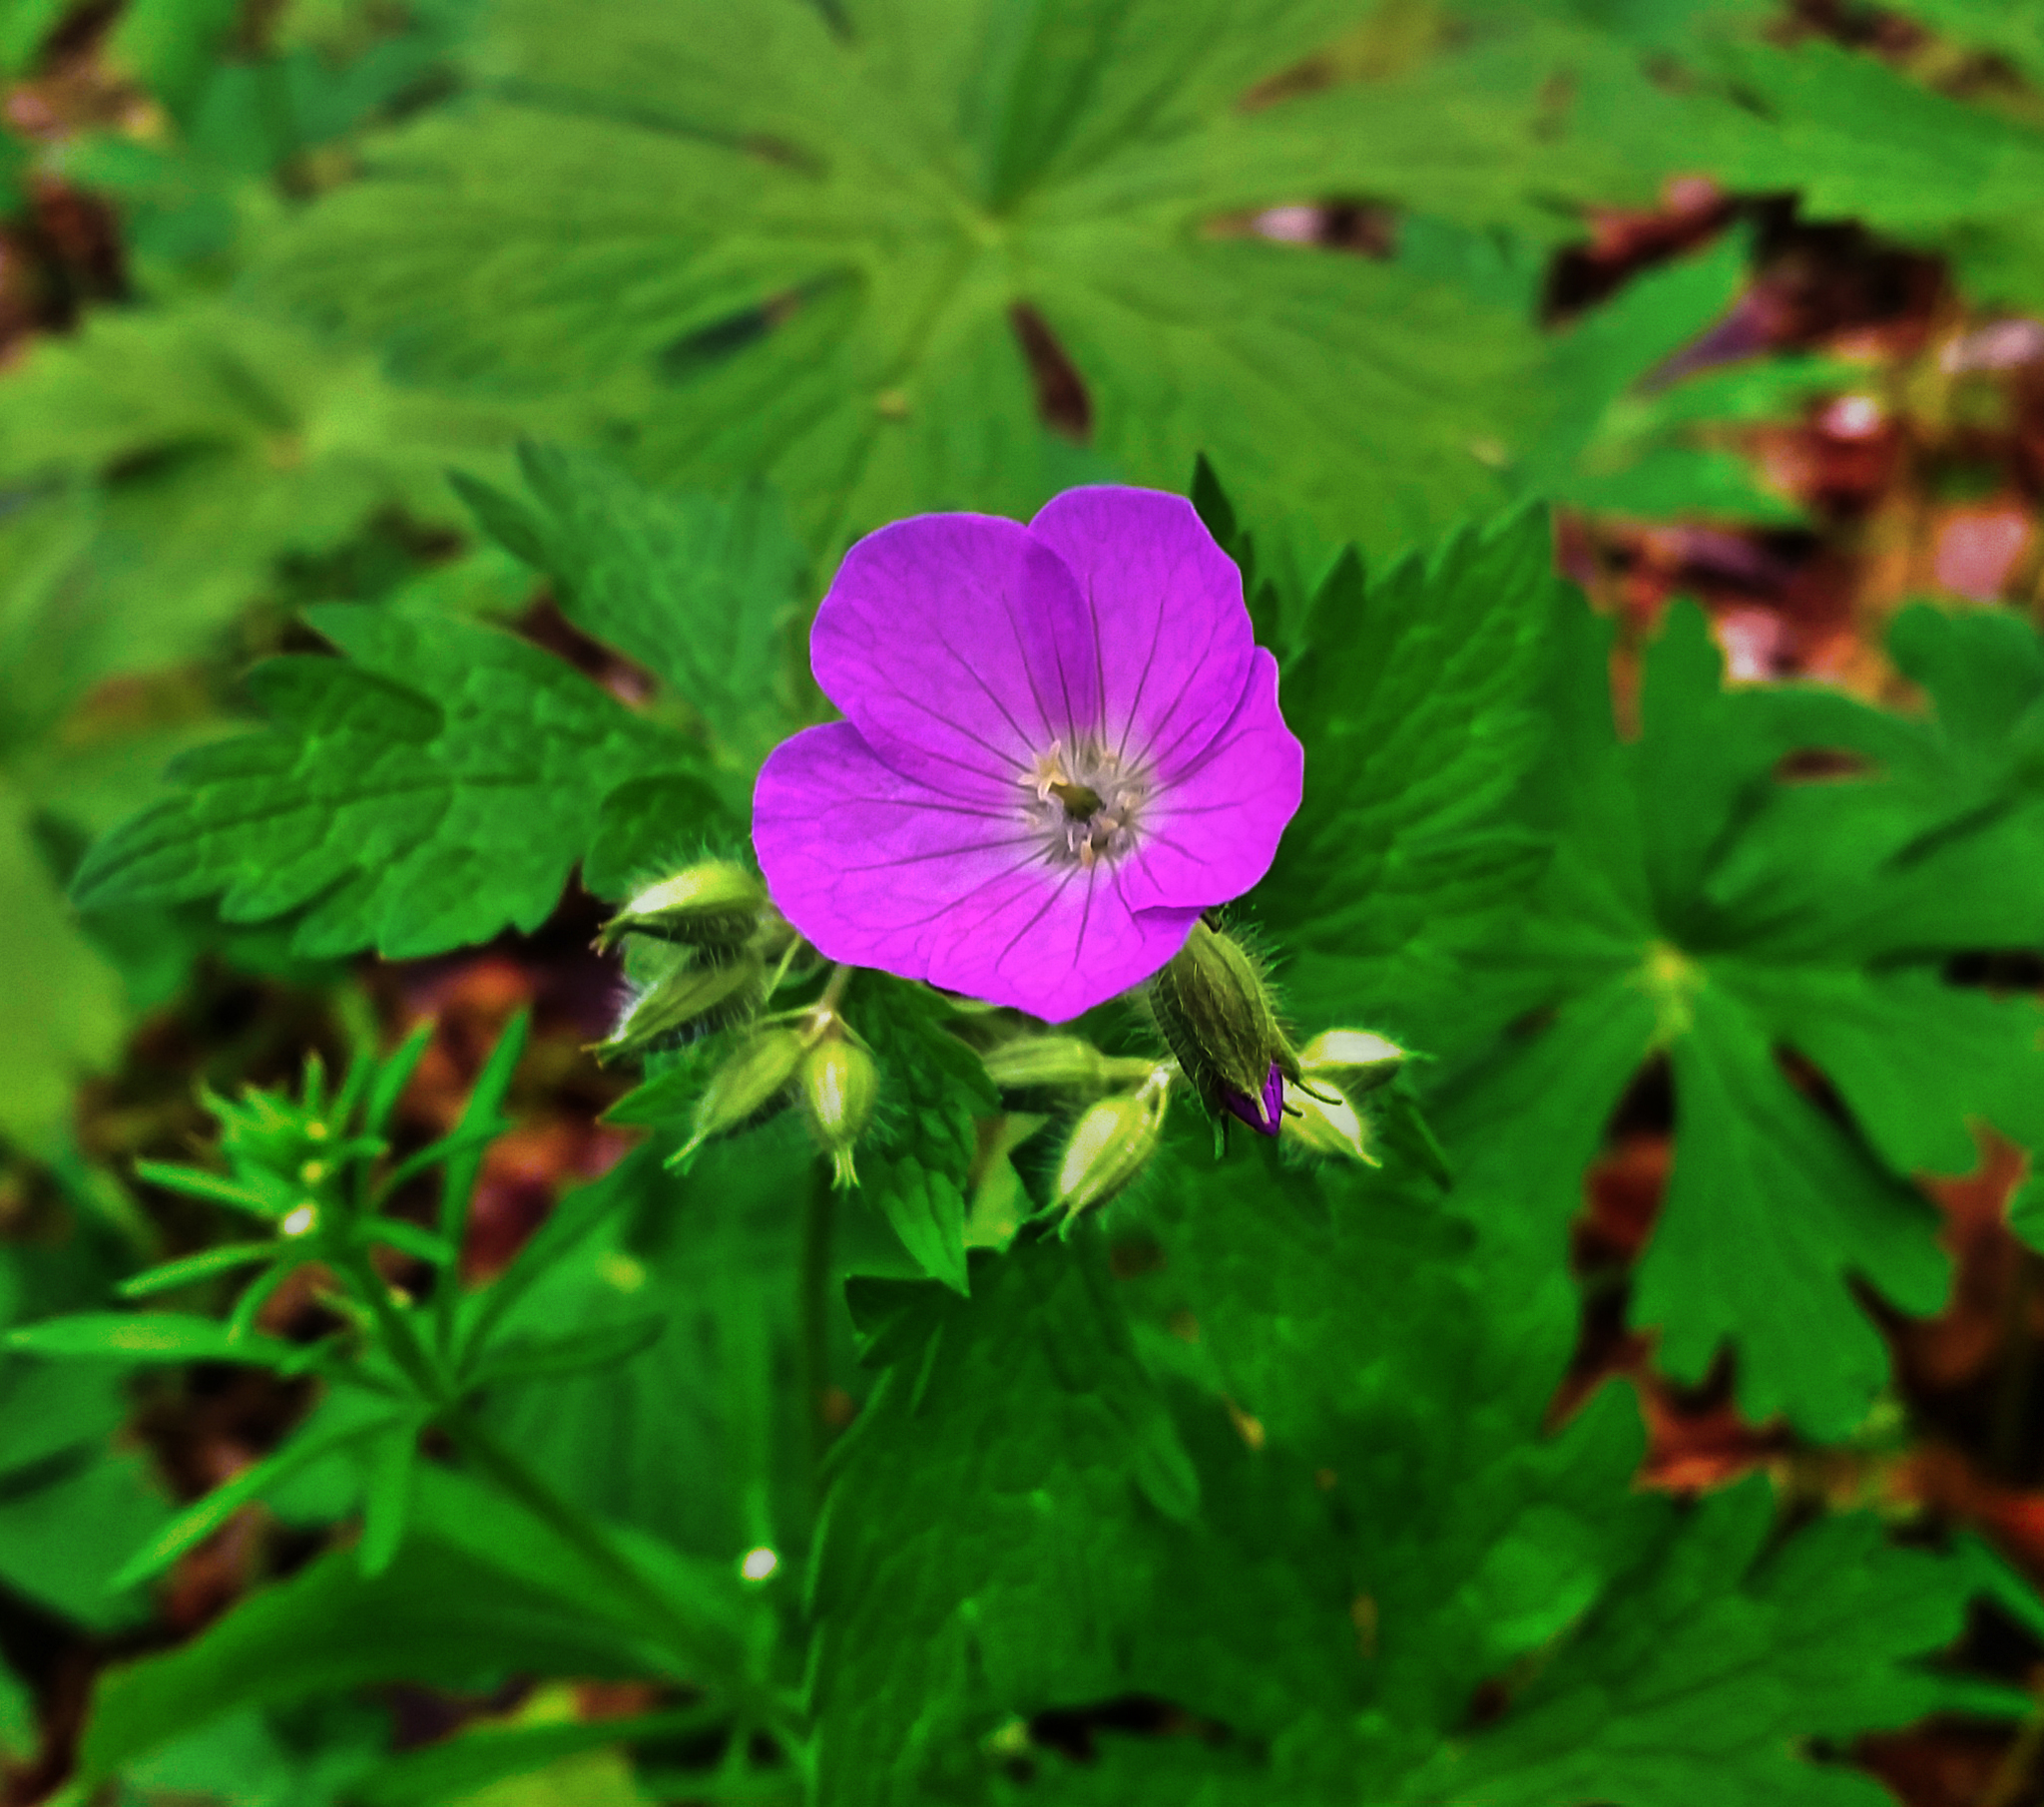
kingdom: Plantae
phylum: Tracheophyta
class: Magnoliopsida
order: Geraniales
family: Geraniaceae
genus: Geranium
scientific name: Geranium maculatum
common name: Spotted geranium
